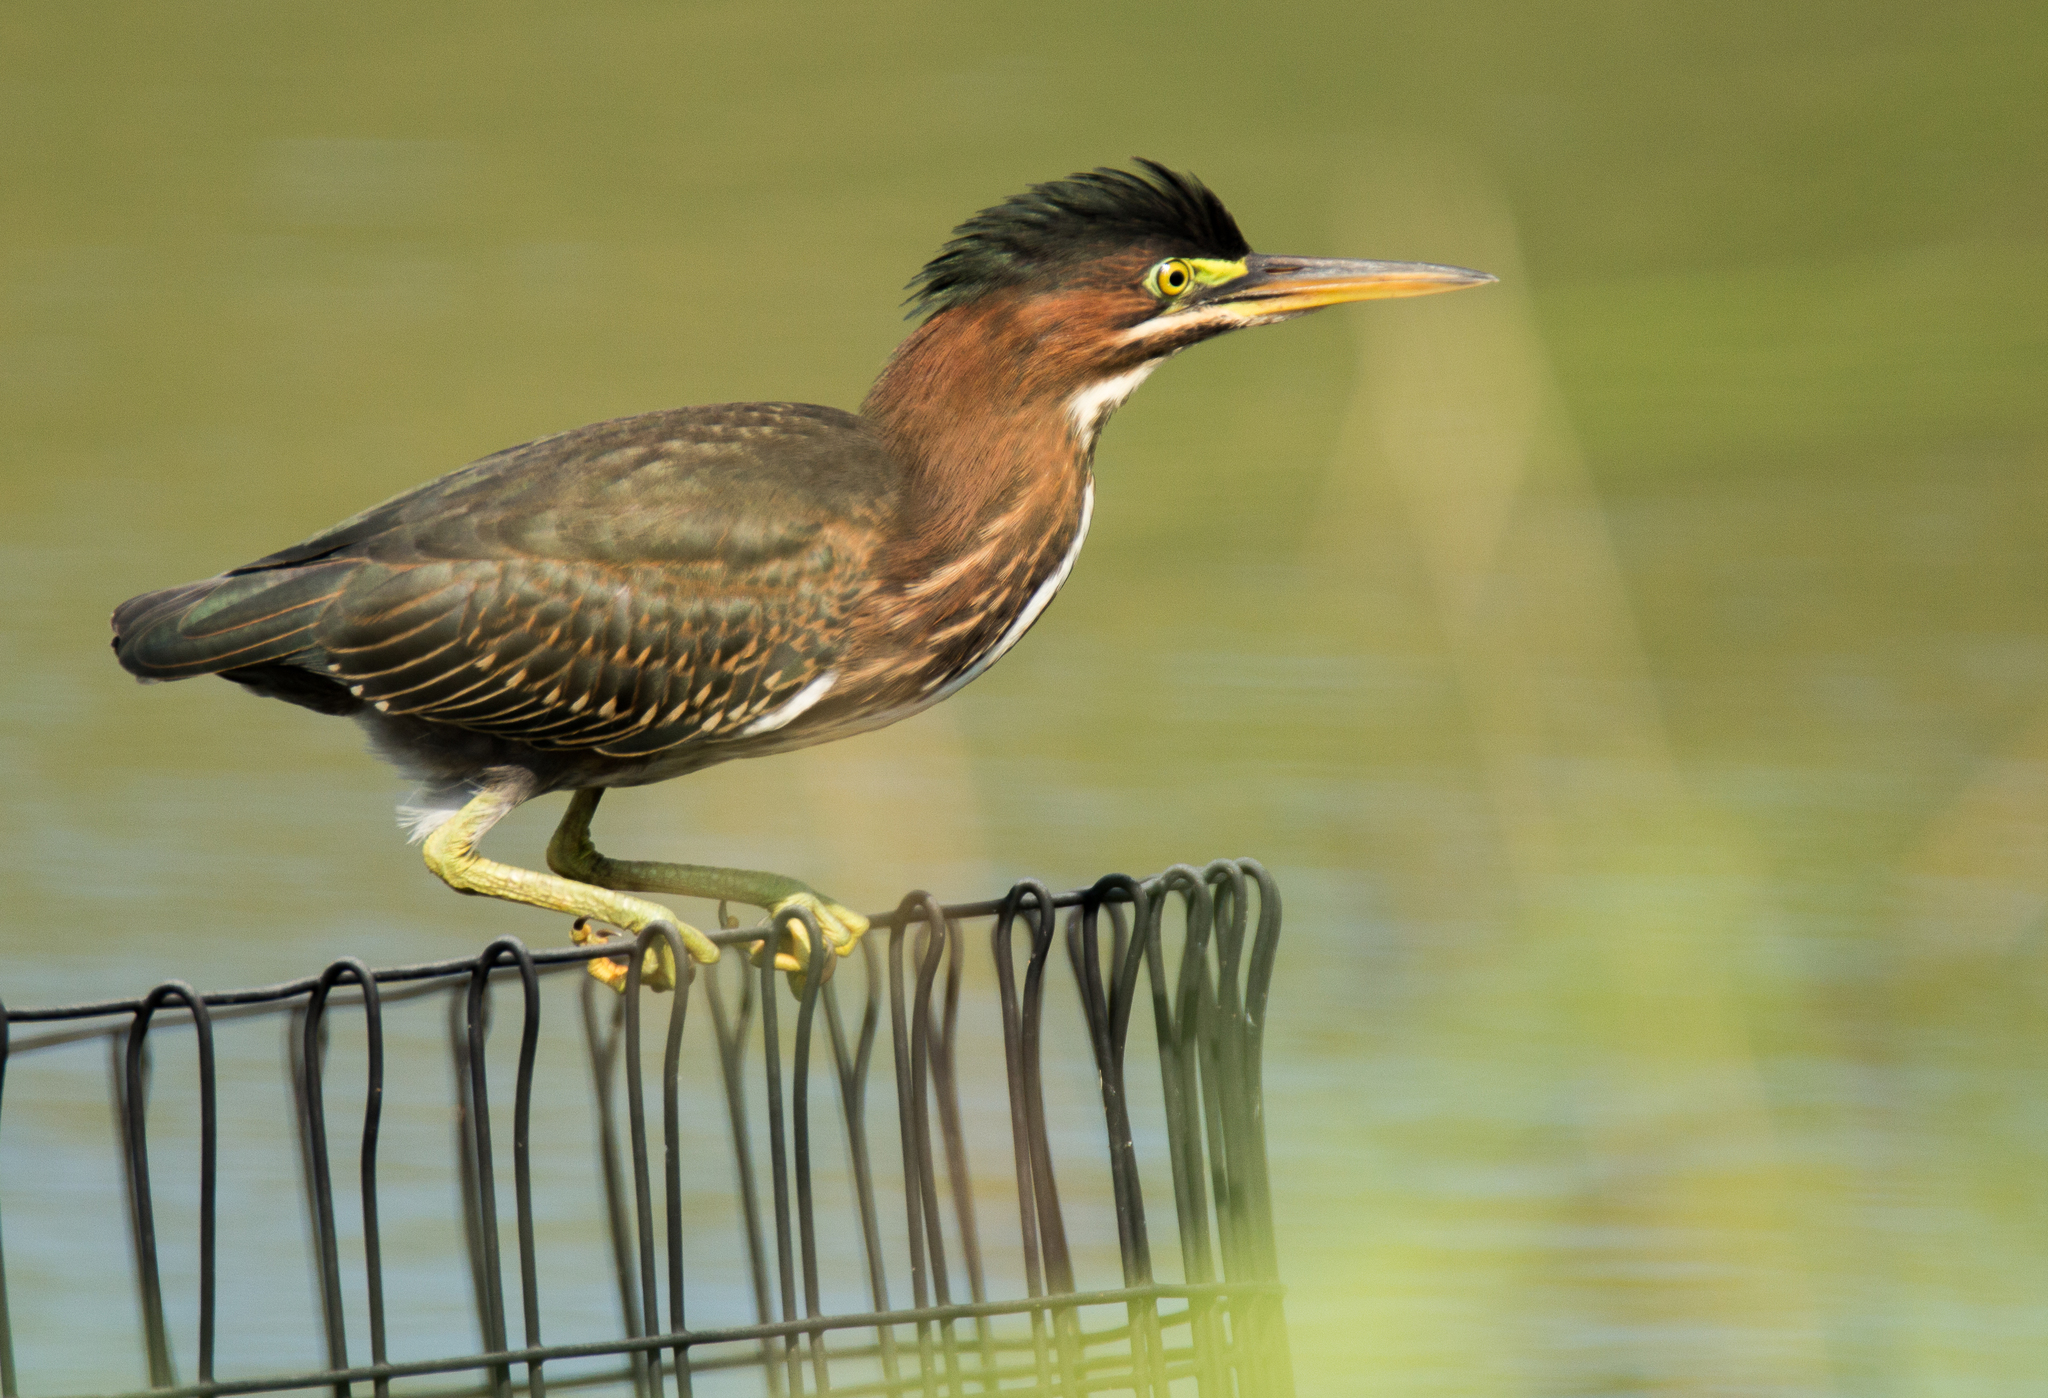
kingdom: Animalia
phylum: Chordata
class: Aves
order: Pelecaniformes
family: Ardeidae
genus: Butorides
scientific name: Butorides virescens
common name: Green heron
